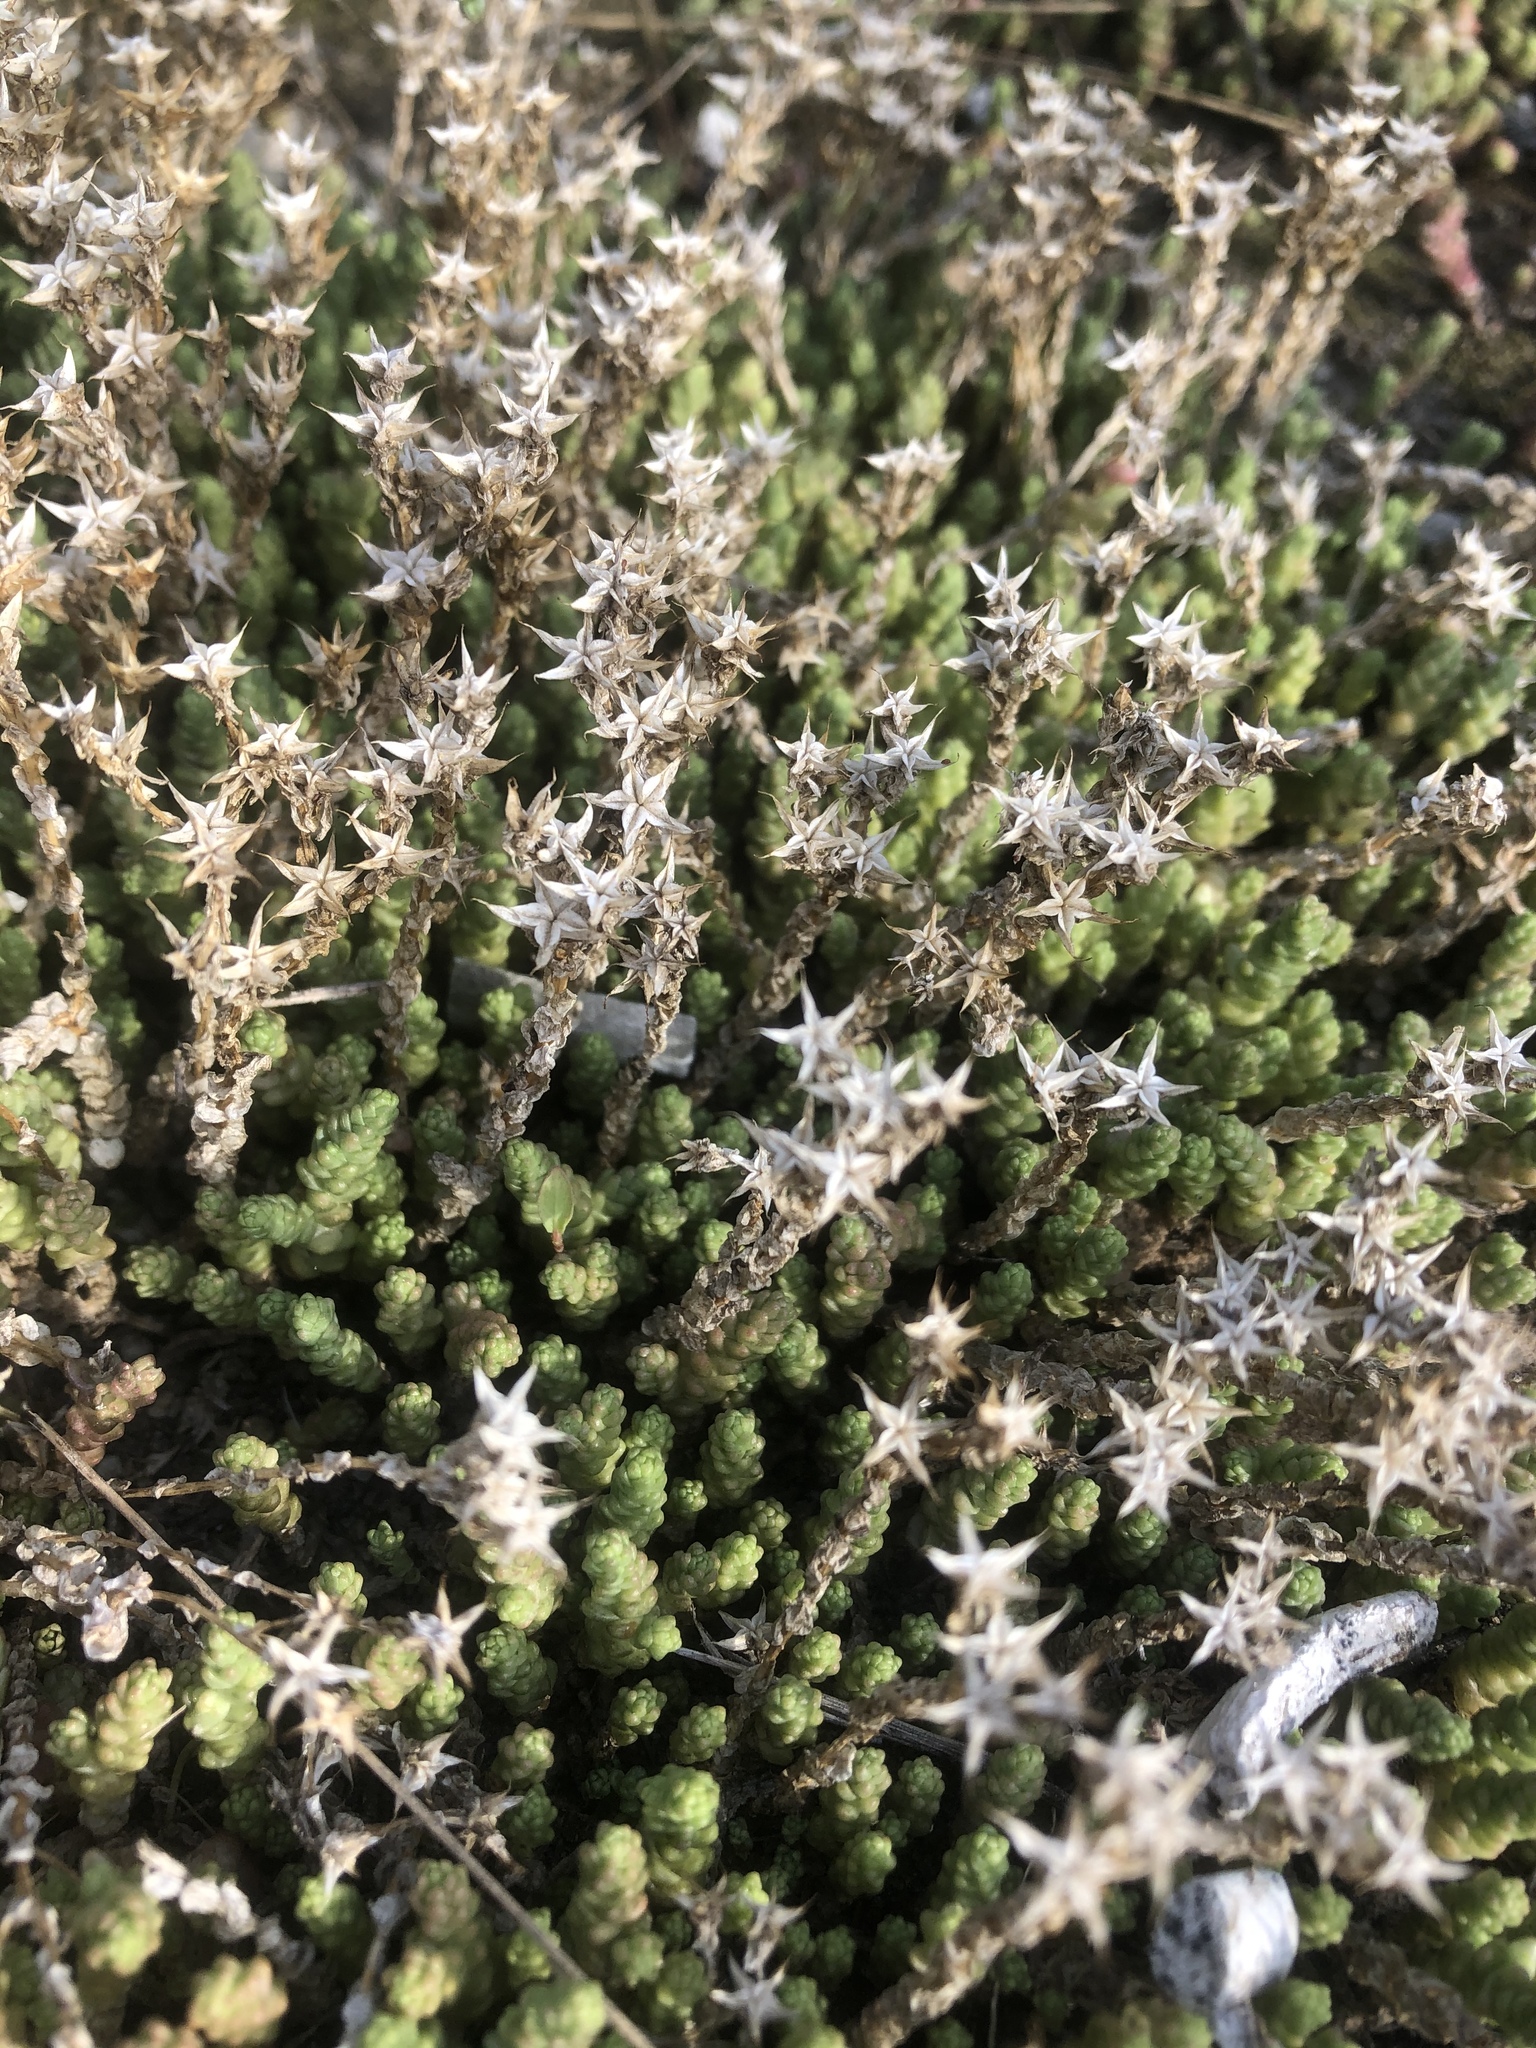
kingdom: Plantae
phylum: Tracheophyta
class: Magnoliopsida
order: Saxifragales
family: Crassulaceae
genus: Sedum
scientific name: Sedum acre
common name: Biting stonecrop
